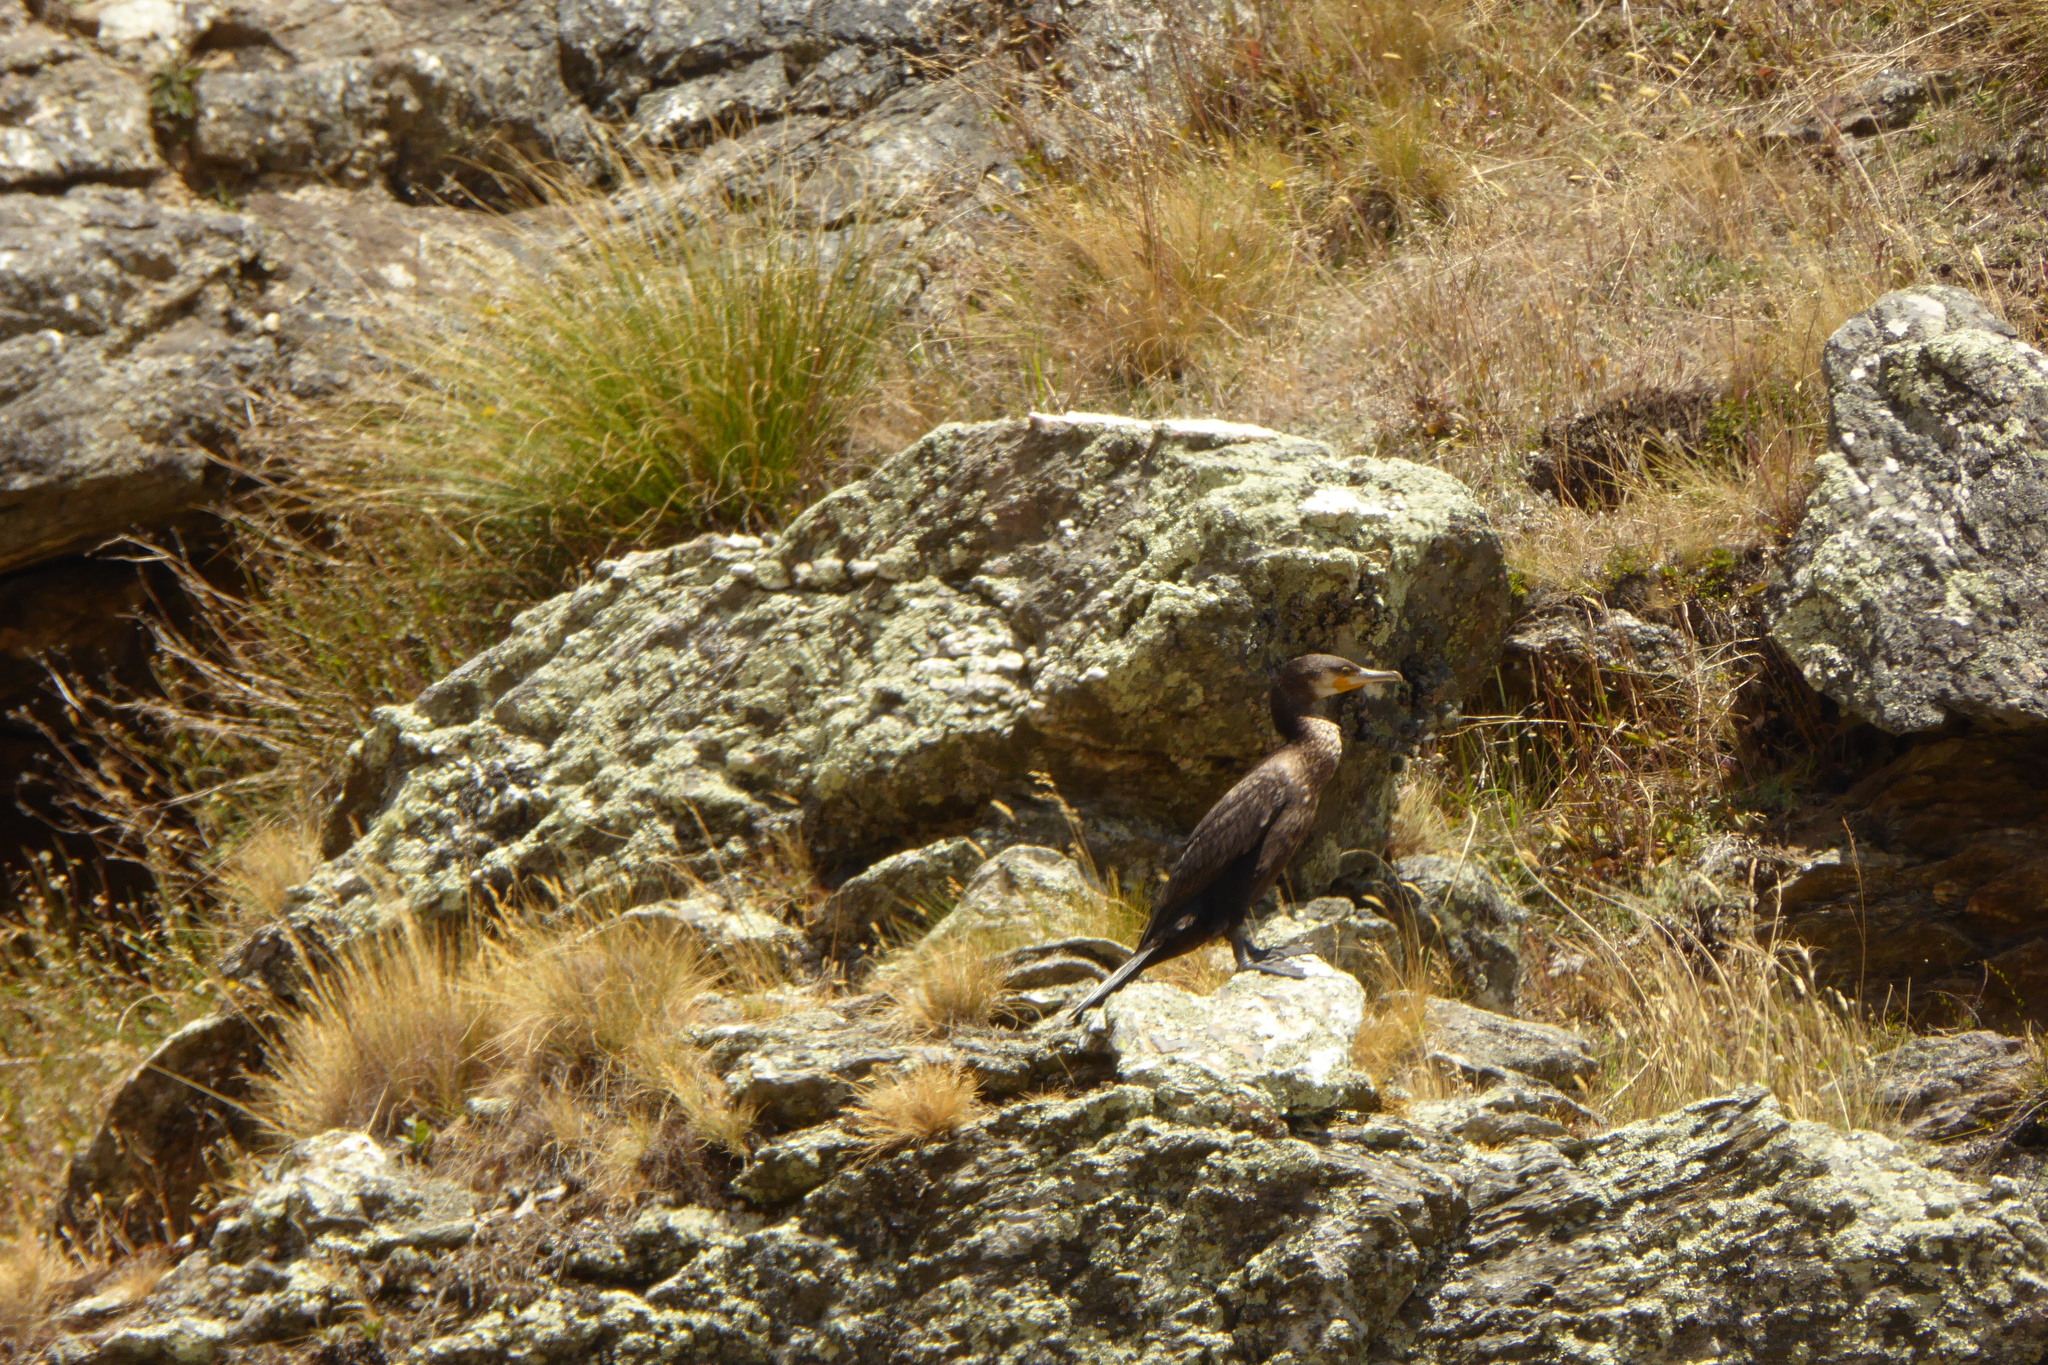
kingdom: Animalia
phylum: Chordata
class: Aves
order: Suliformes
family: Phalacrocoracidae
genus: Phalacrocorax
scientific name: Phalacrocorax carbo
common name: Great cormorant
